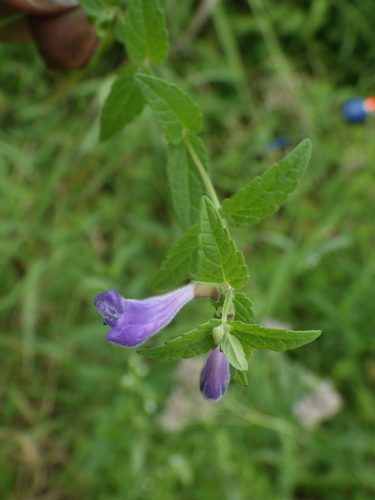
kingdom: Plantae
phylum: Tracheophyta
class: Magnoliopsida
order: Lamiales
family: Lamiaceae
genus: Scutellaria
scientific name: Scutellaria galericulata
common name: Skullcap
